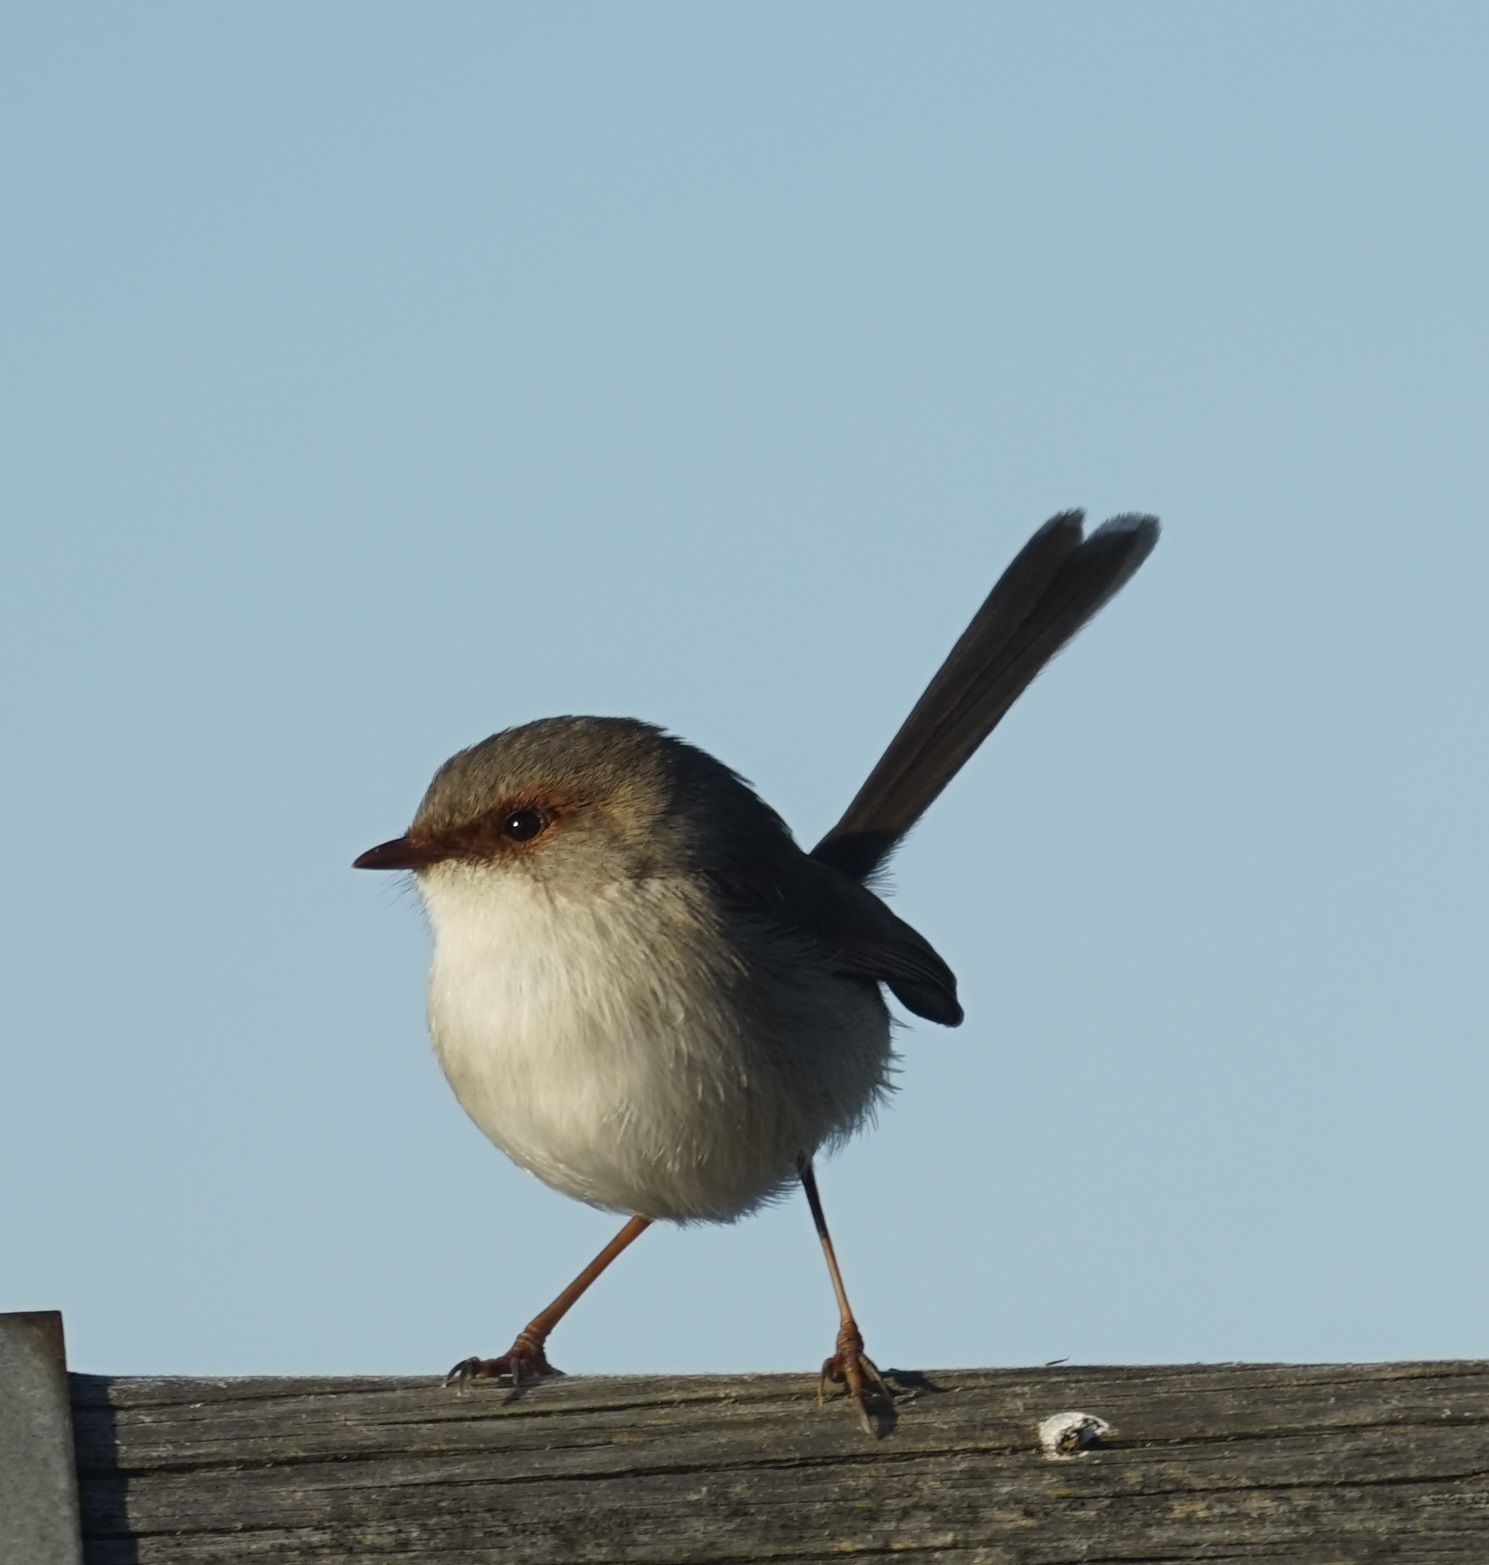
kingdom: Animalia
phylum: Chordata
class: Aves
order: Passeriformes
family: Maluridae
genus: Malurus
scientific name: Malurus cyaneus
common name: Superb fairywren
